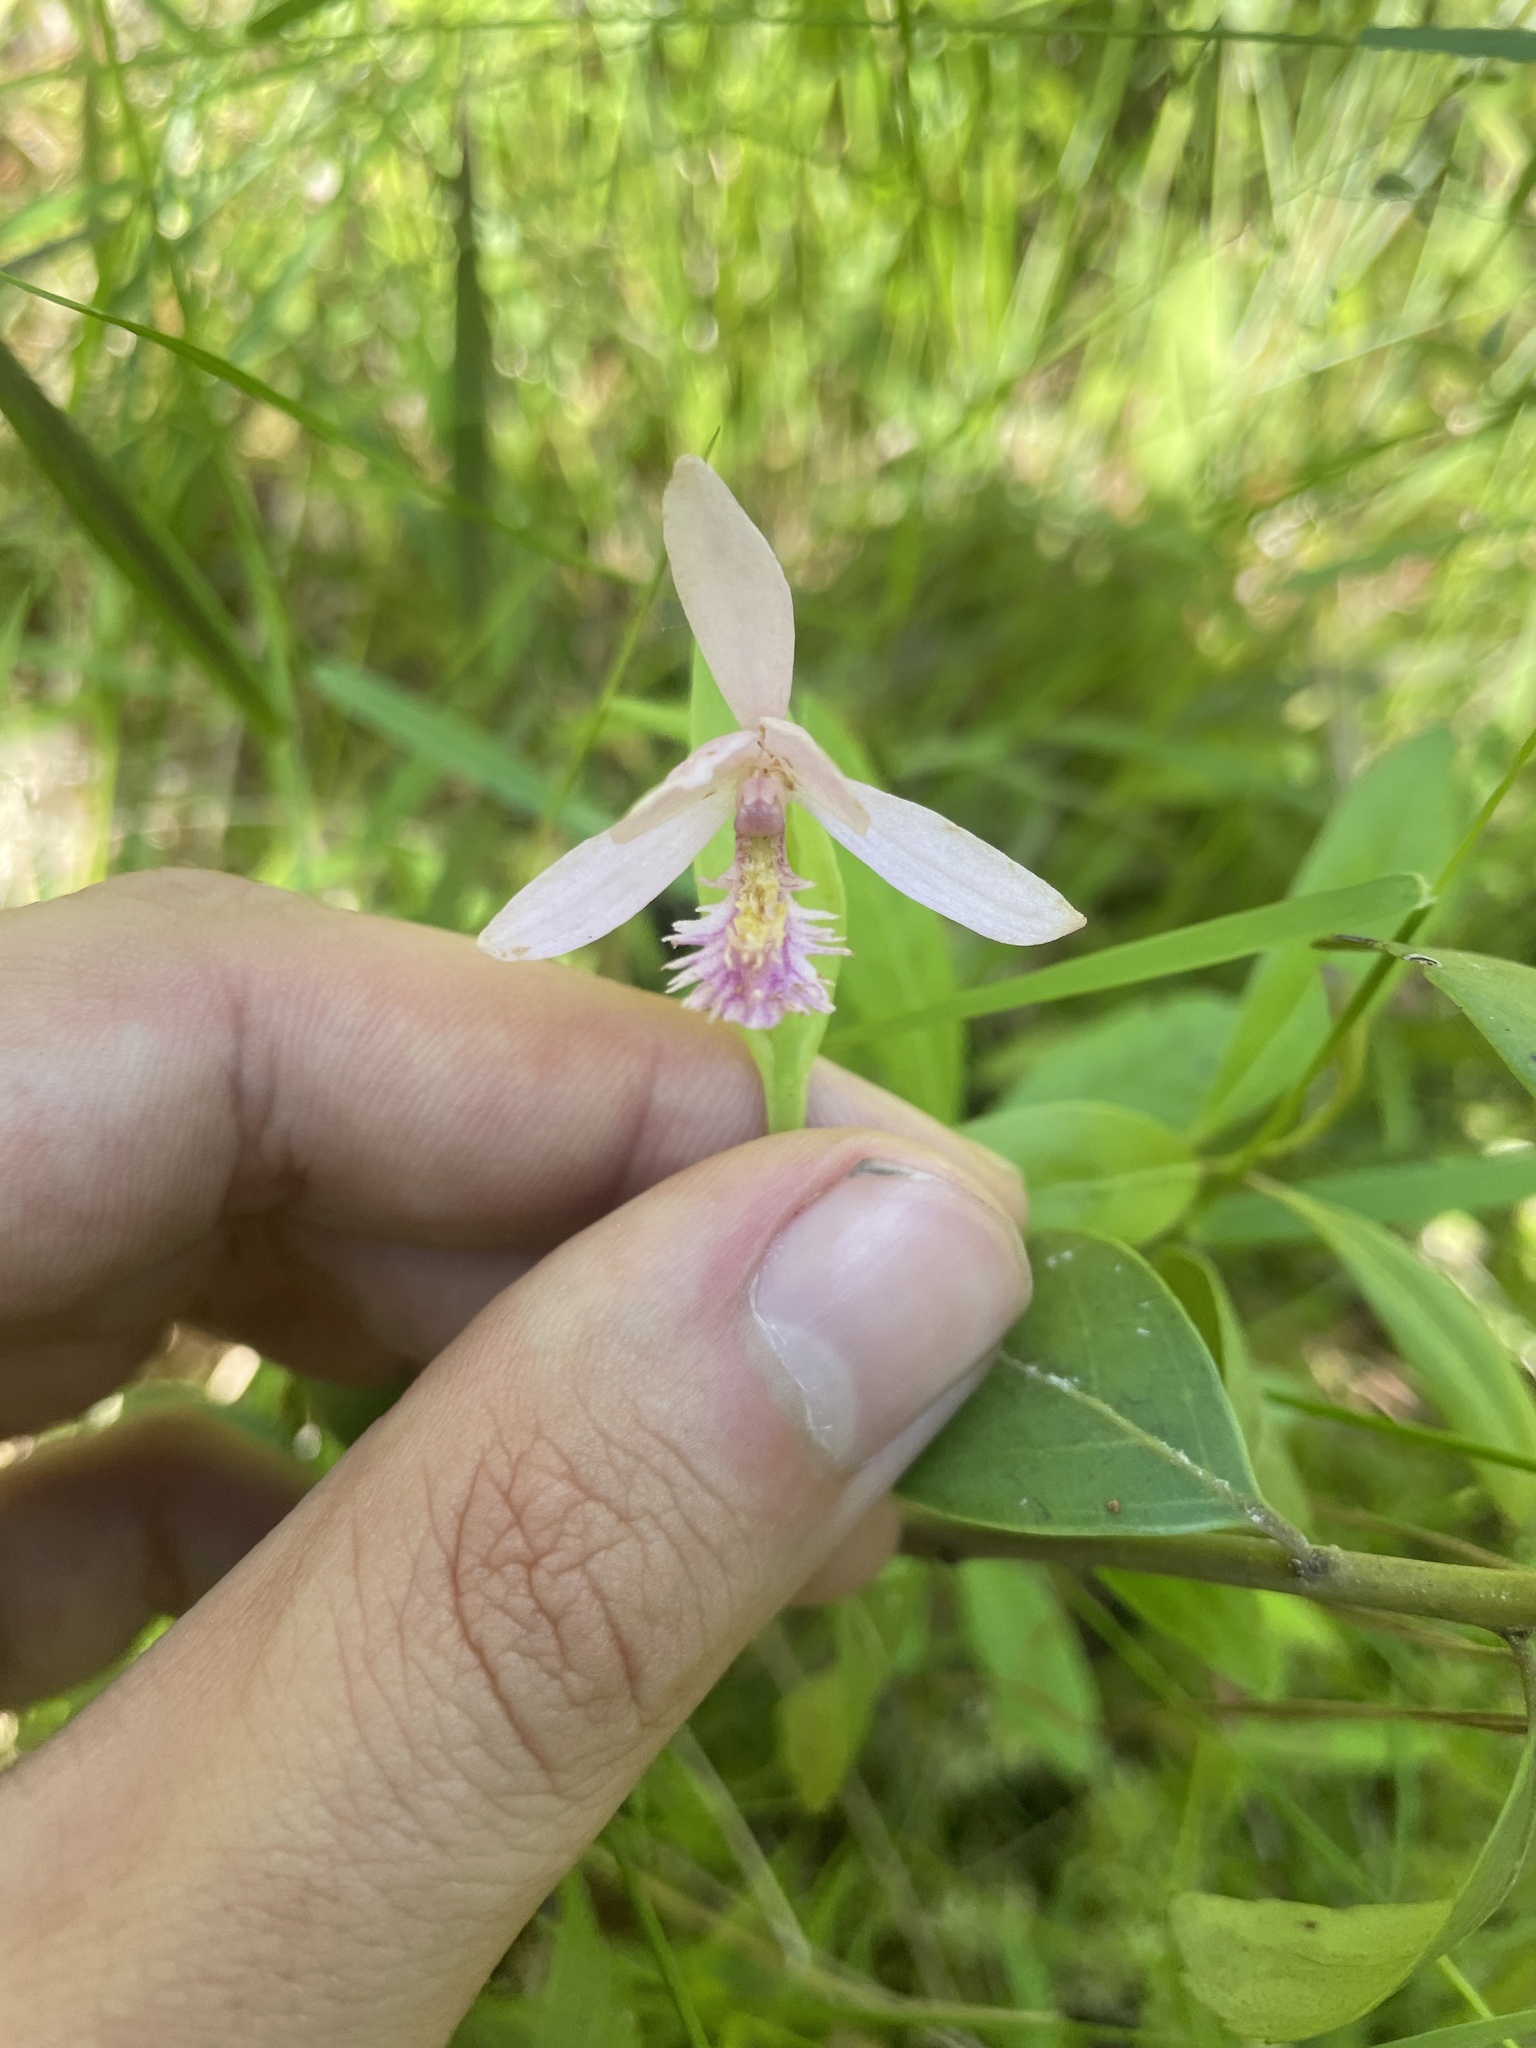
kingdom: Plantae
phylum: Tracheophyta
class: Liliopsida
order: Asparagales
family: Orchidaceae
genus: Pogonia
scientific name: Pogonia ophioglossoides
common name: Rose pogonia
